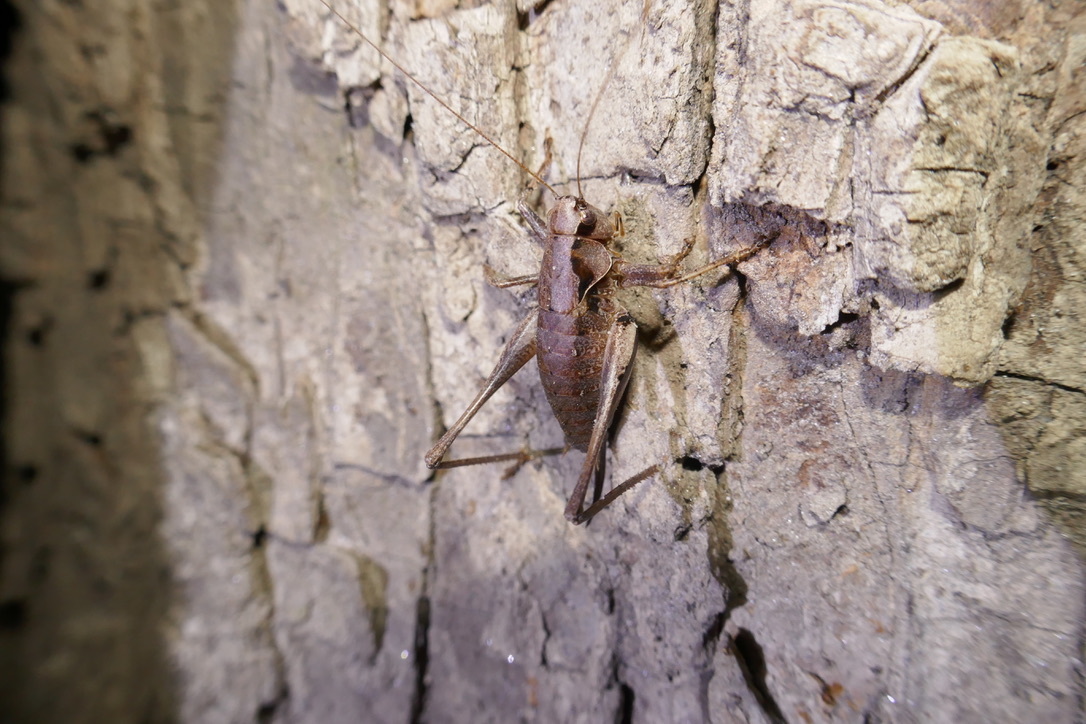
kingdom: Animalia
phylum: Arthropoda
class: Insecta
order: Orthoptera
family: Tettigoniidae
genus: Pholidoptera
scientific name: Pholidoptera griseoaptera
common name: Dark bush-cricket
